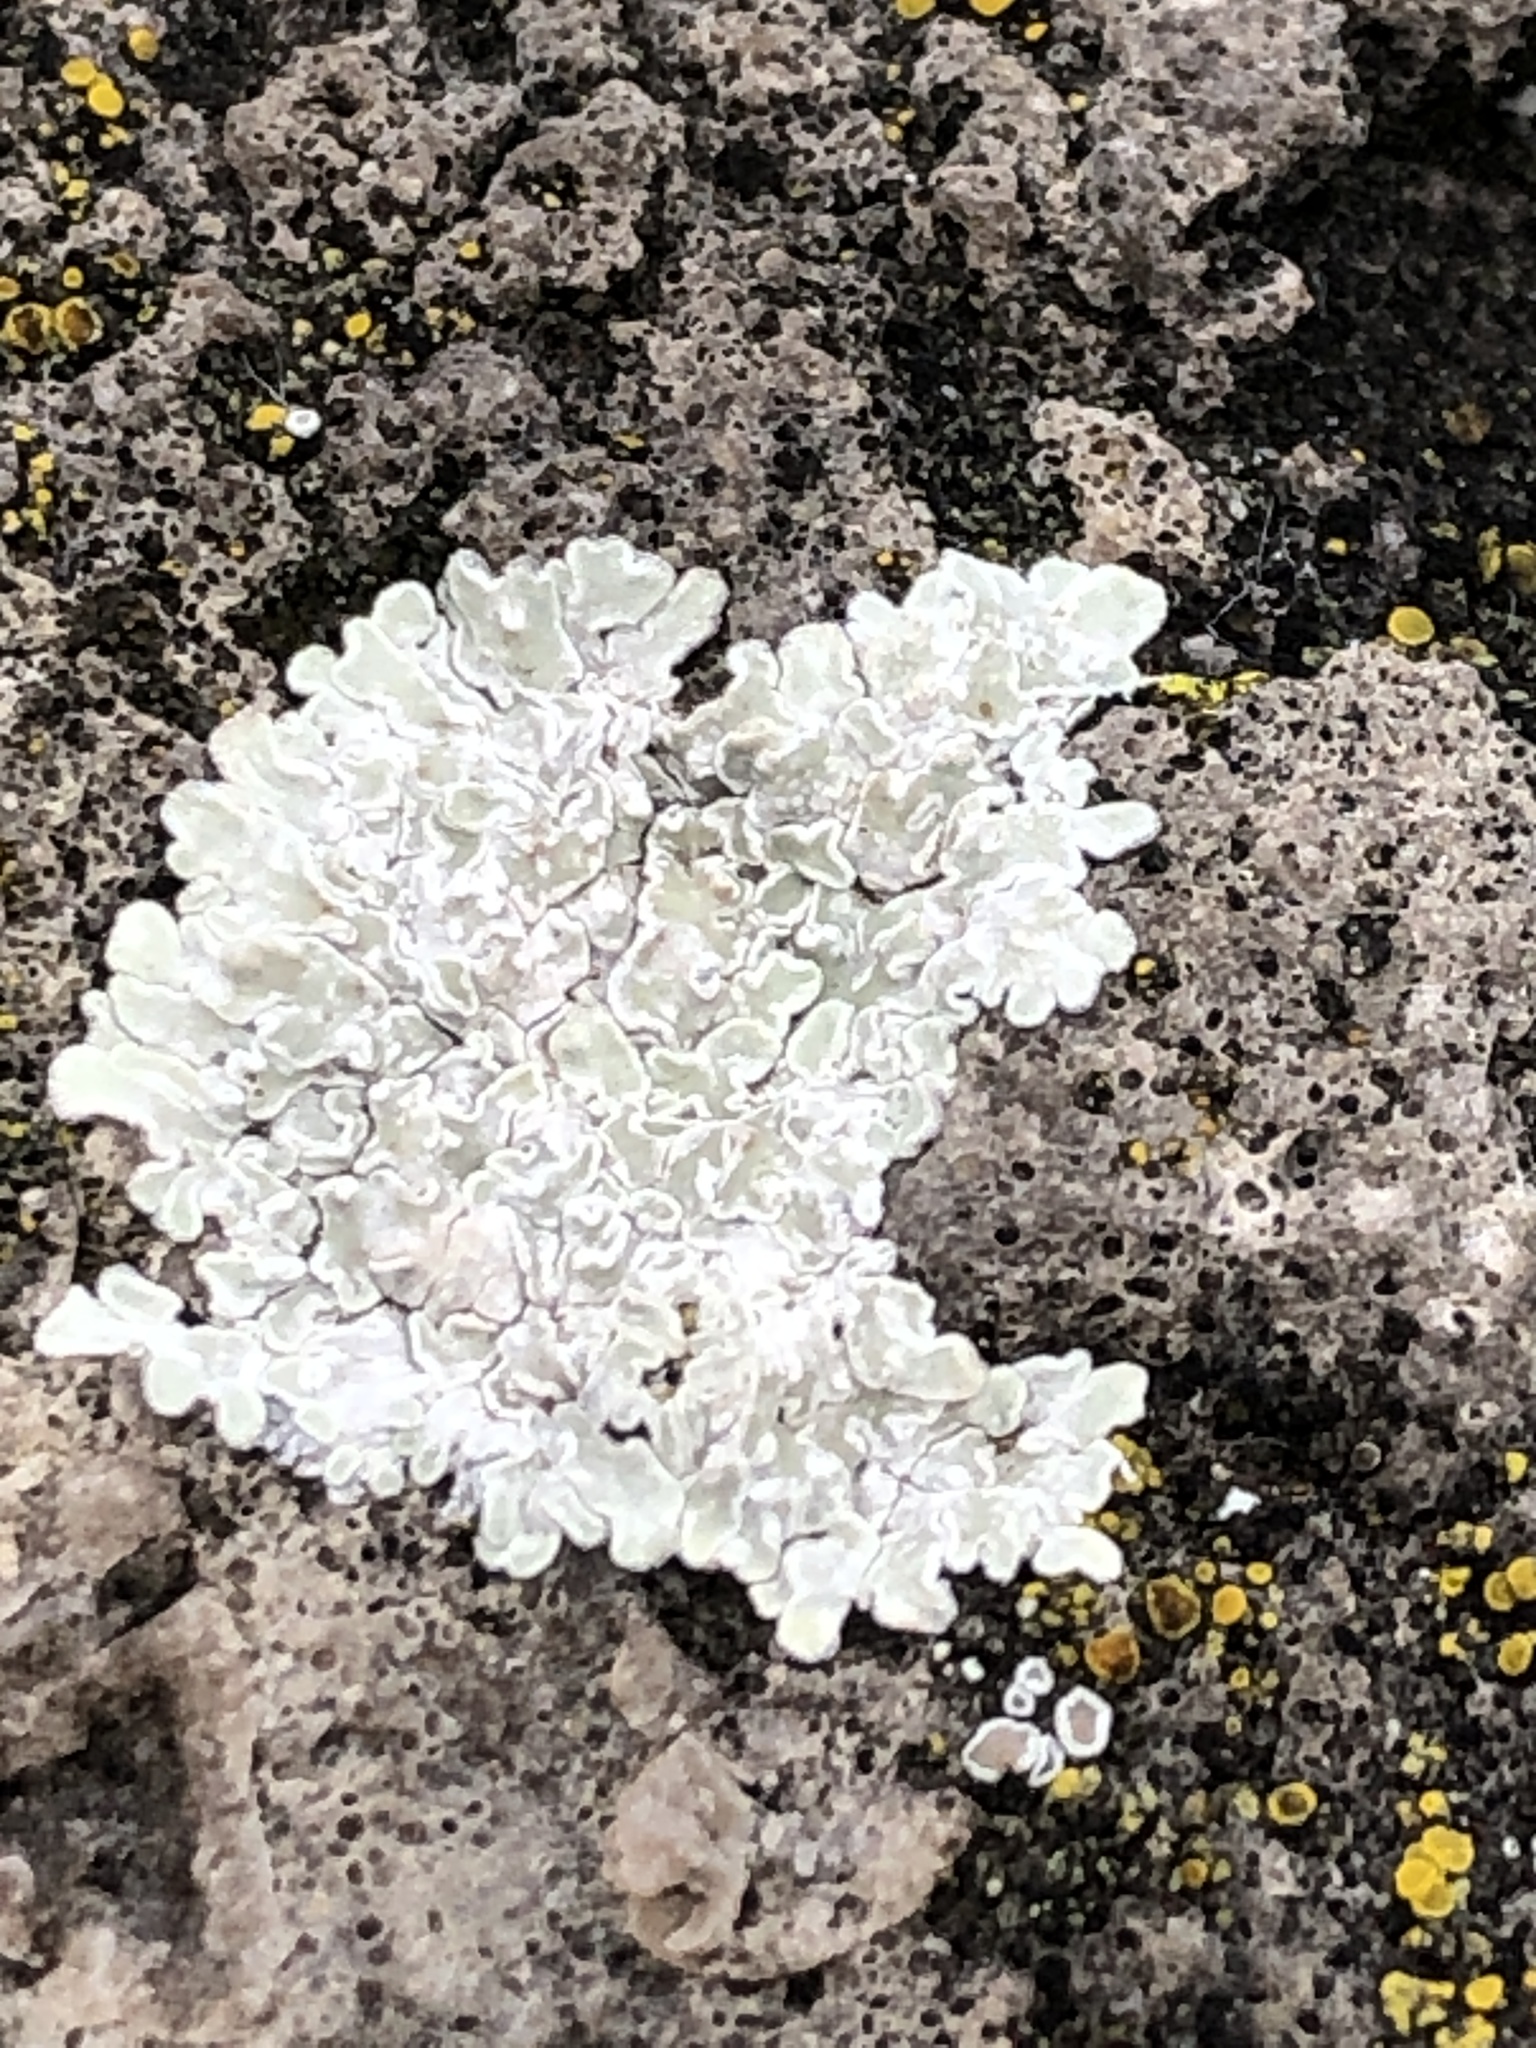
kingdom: Fungi
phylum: Ascomycota
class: Lecanoromycetes
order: Lecanorales
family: Lecanoraceae
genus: Protoparmeliopsis
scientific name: Protoparmeliopsis muralis
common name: Stonewall rim lichen
